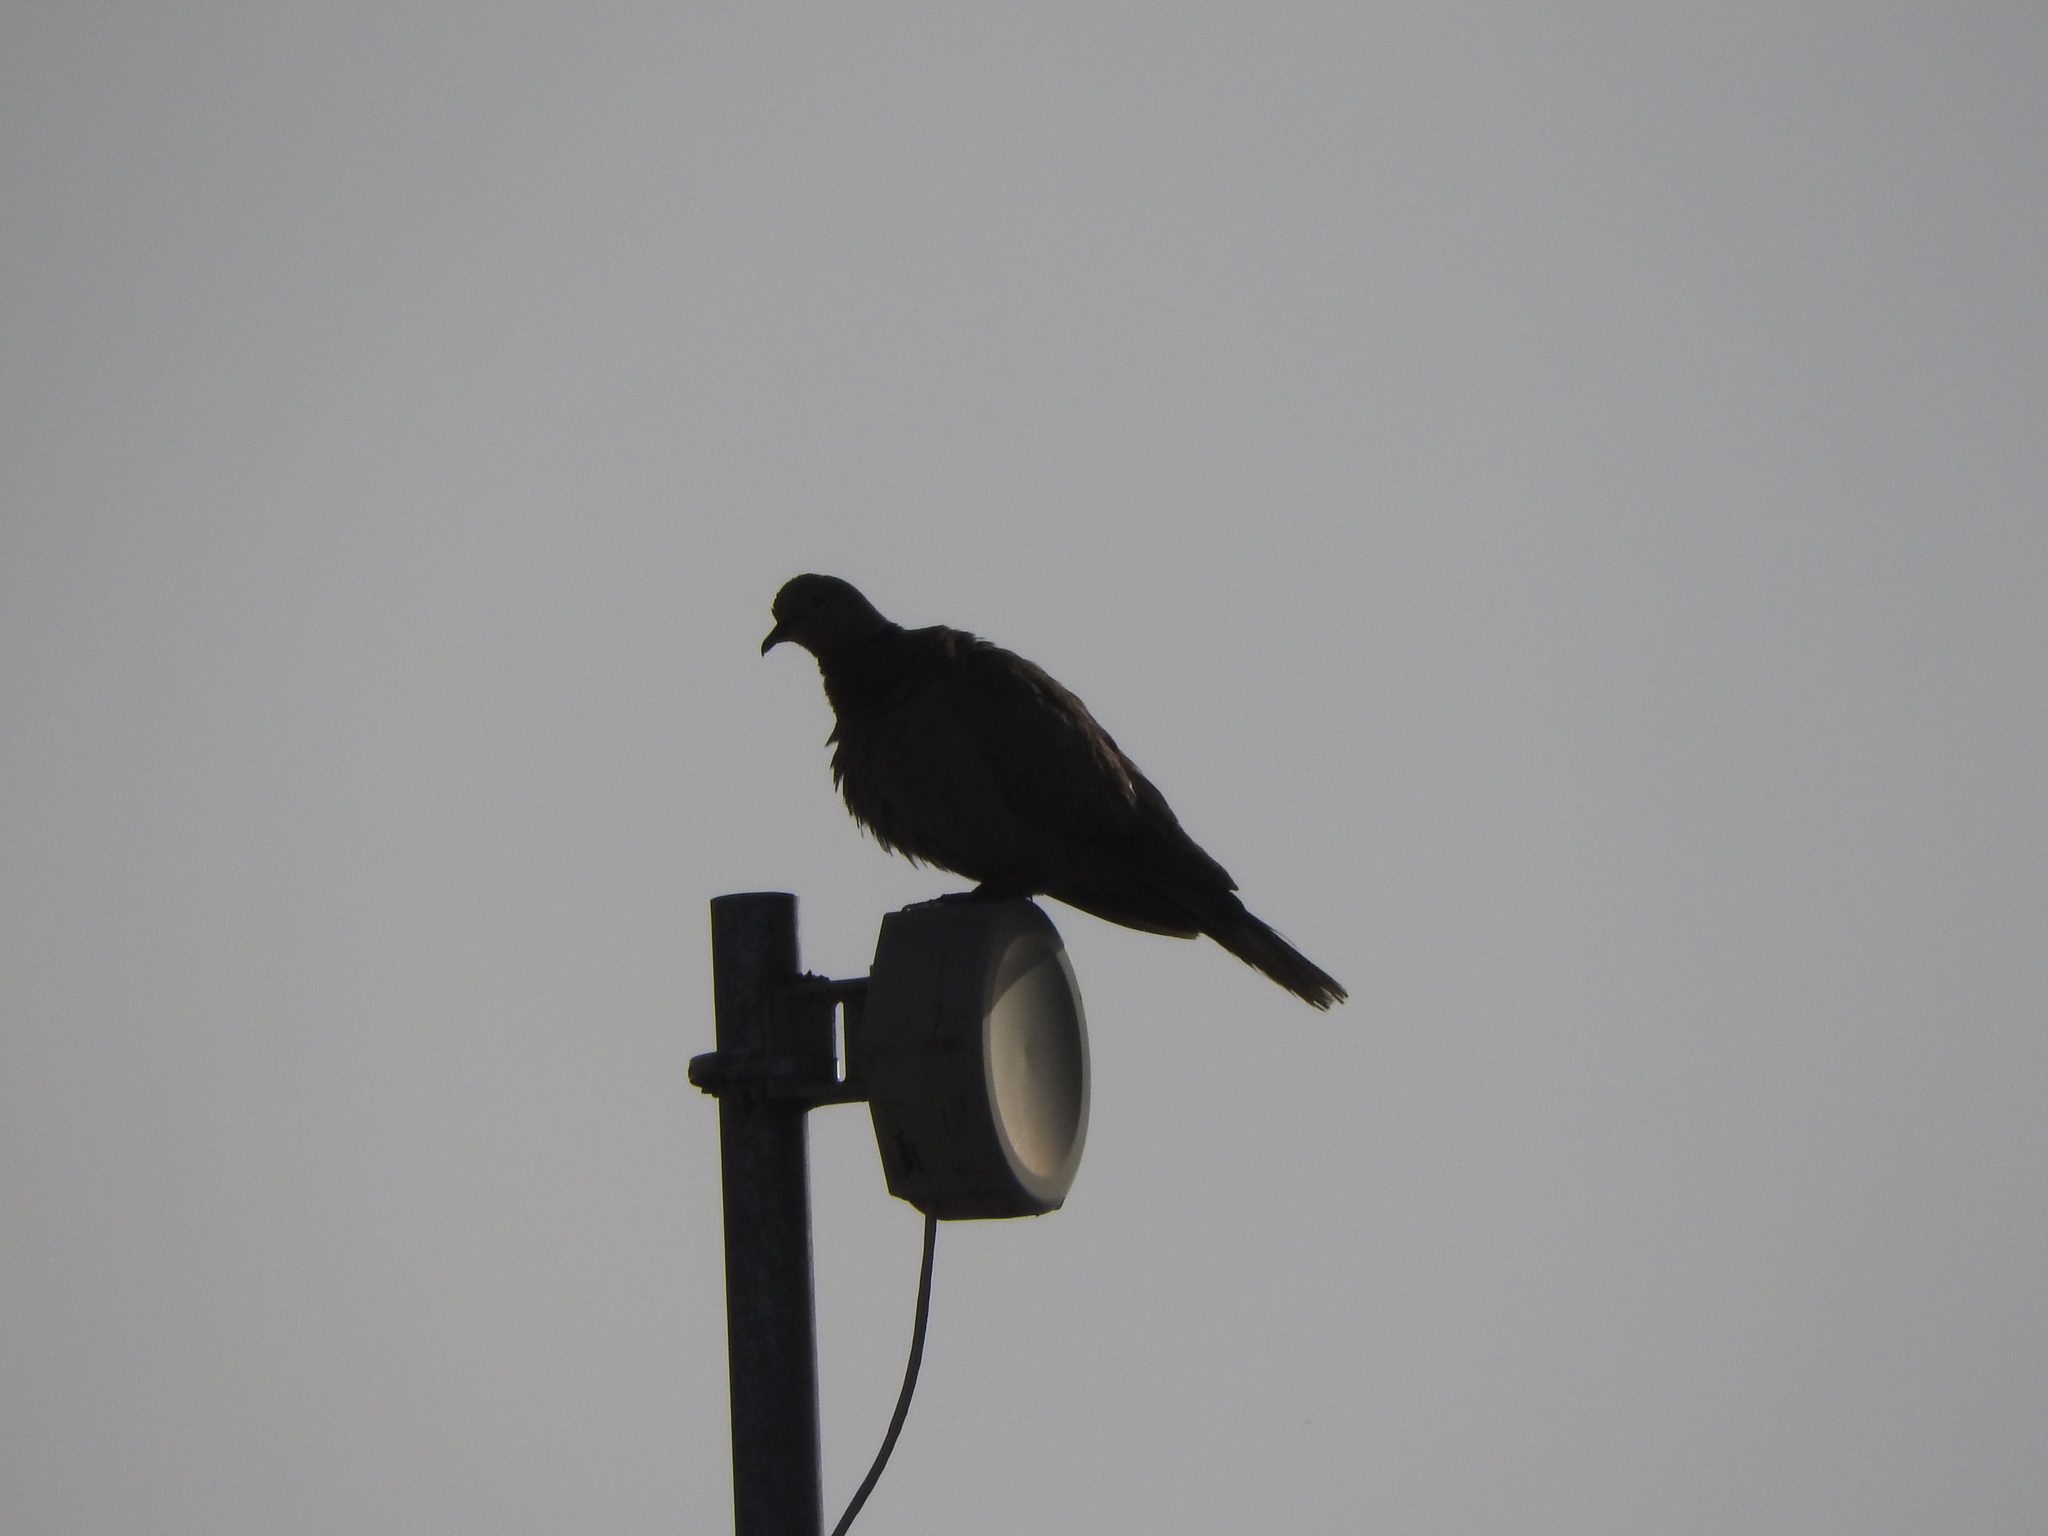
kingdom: Animalia
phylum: Chordata
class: Aves
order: Columbiformes
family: Columbidae
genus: Streptopelia
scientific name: Streptopelia decaocto
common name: Eurasian collared dove
